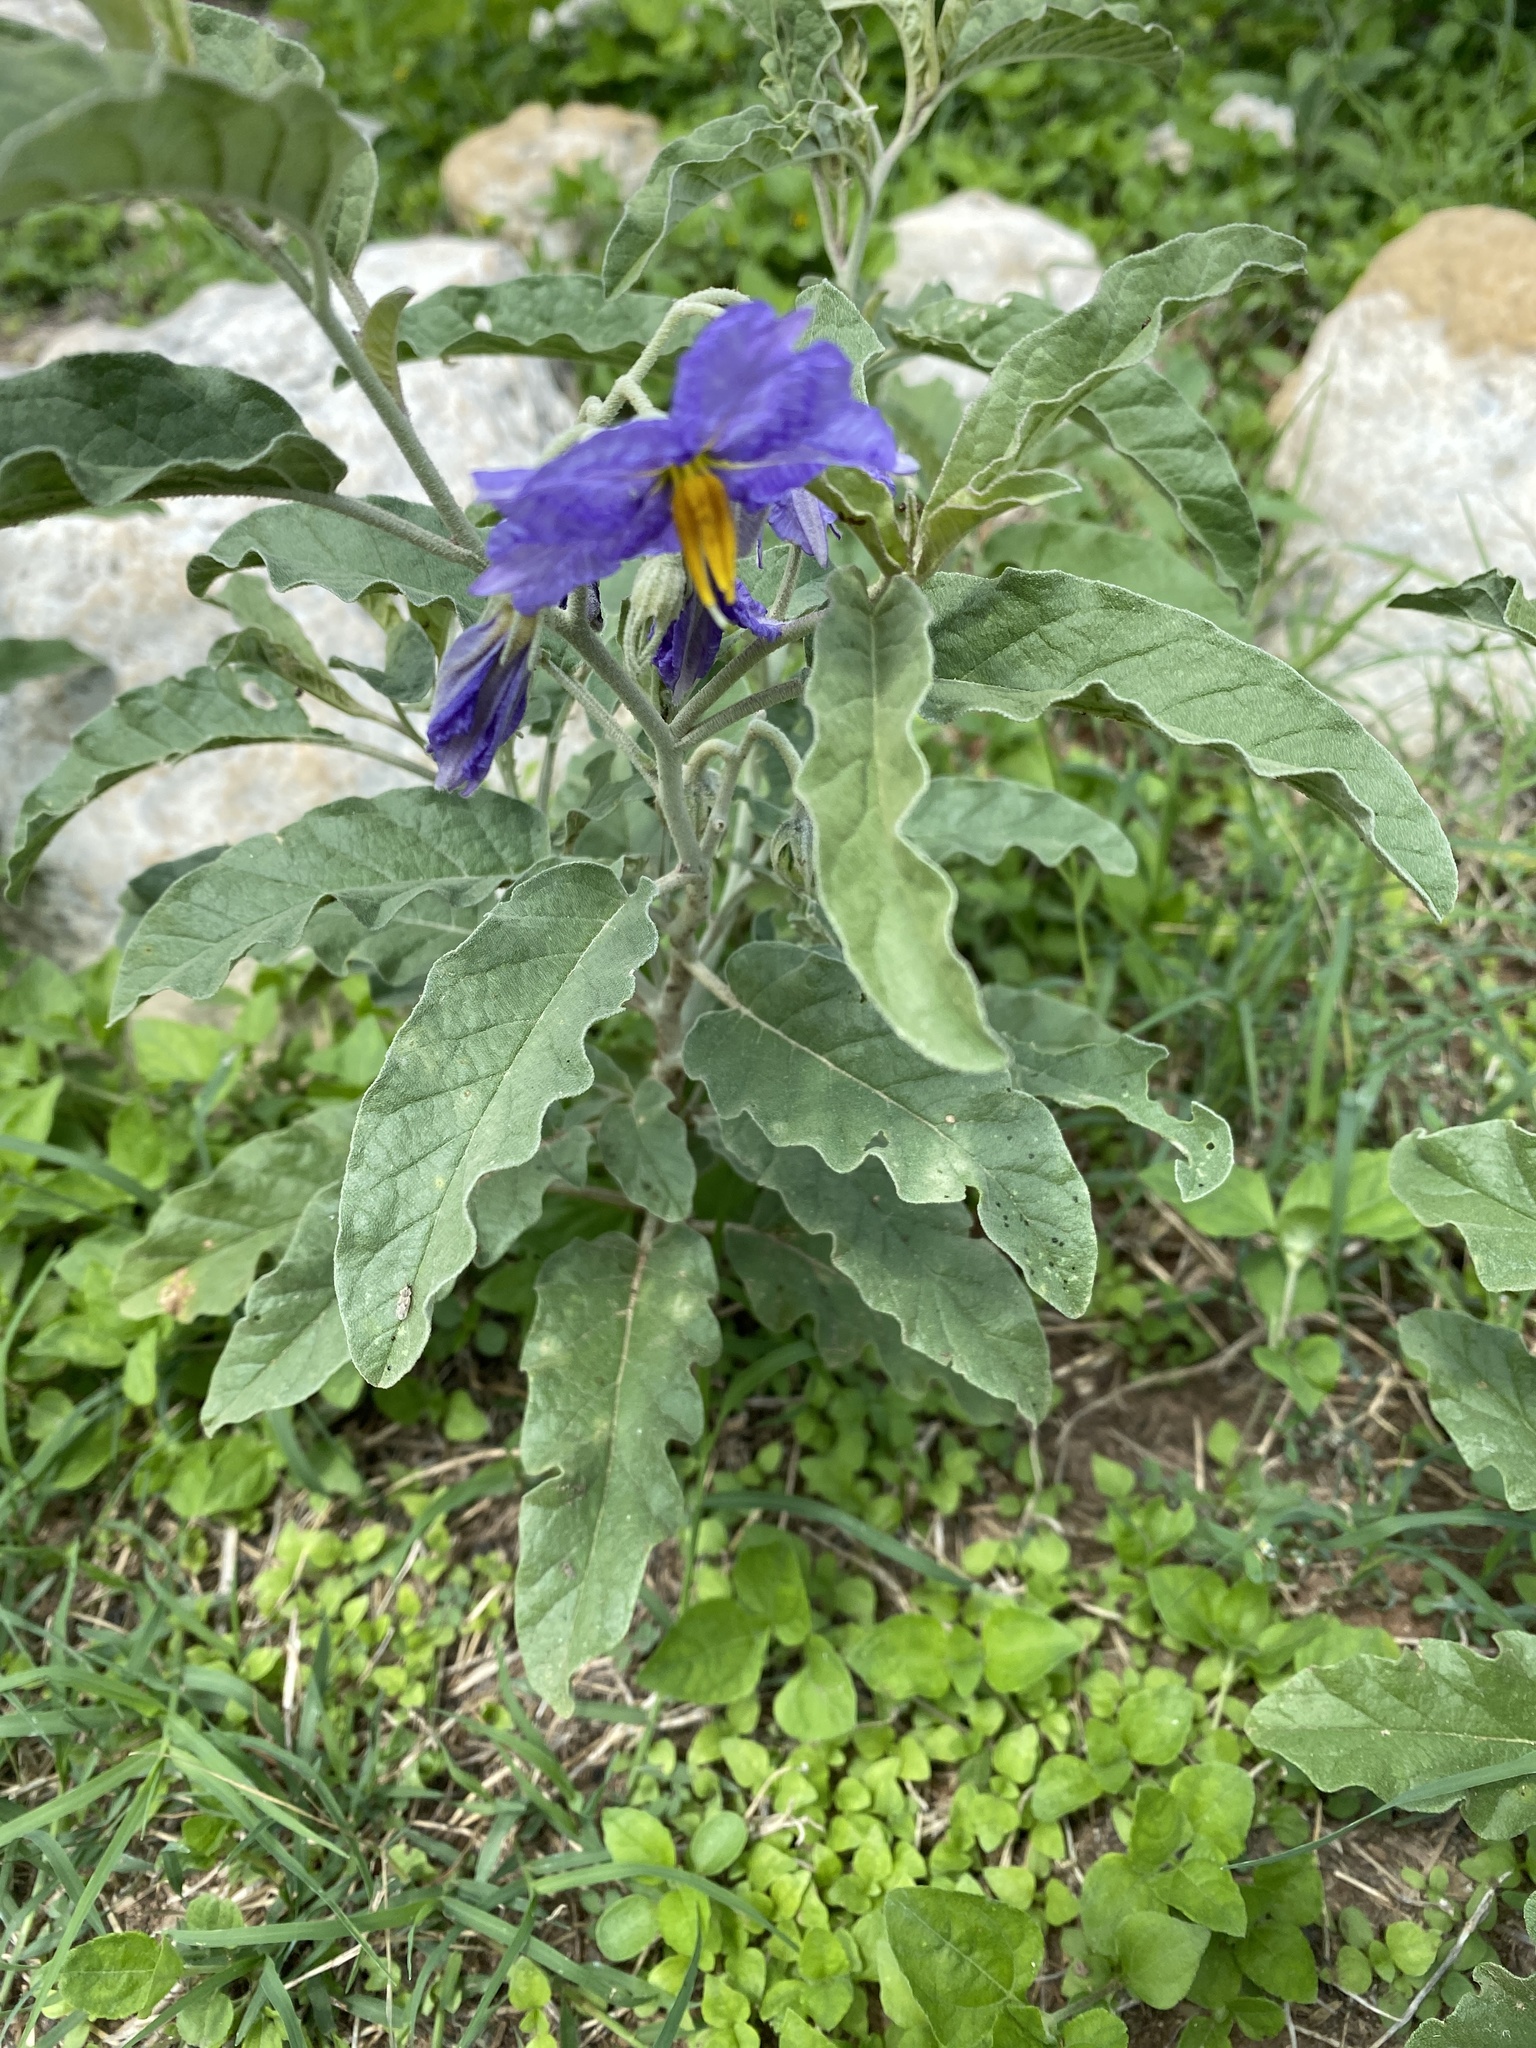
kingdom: Plantae
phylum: Tracheophyta
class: Magnoliopsida
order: Solanales
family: Solanaceae
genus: Solanum
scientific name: Solanum elaeagnifolium
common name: Silverleaf nightshade
